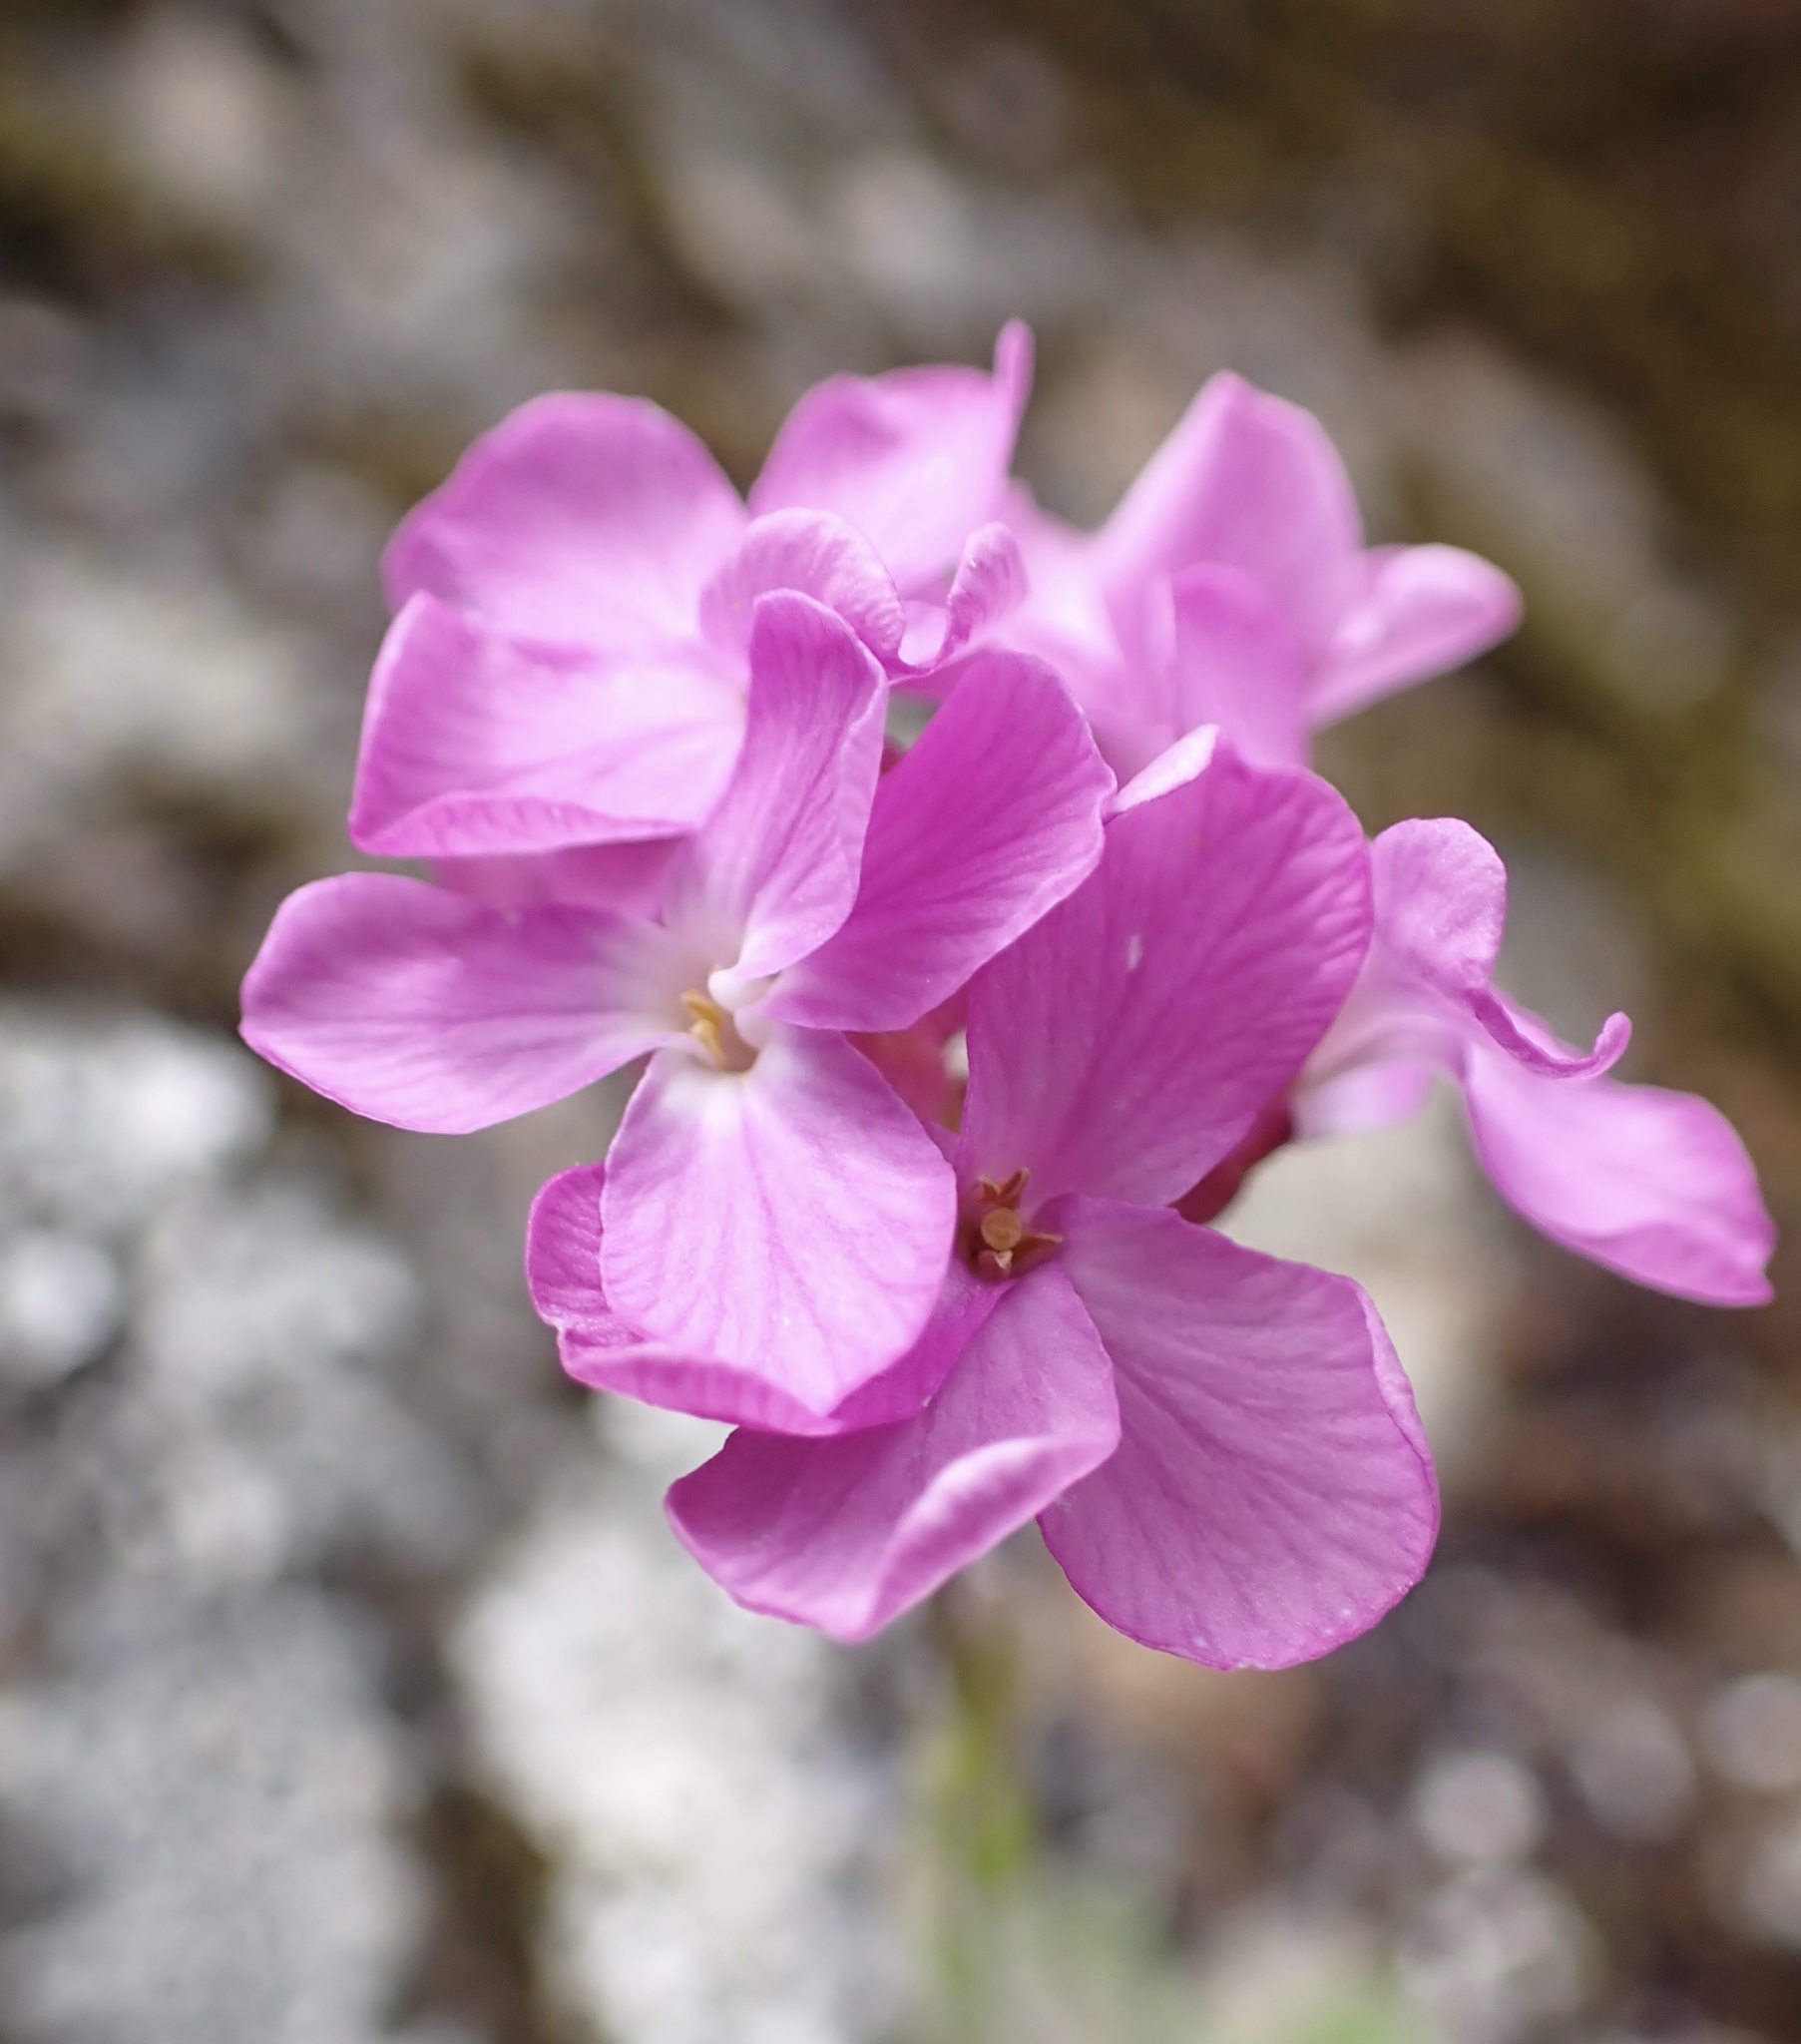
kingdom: Plantae
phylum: Tracheophyta
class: Magnoliopsida
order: Brassicales
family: Brassicaceae
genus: Arabis
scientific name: Arabis blepharophylla
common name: Rose rockcress
